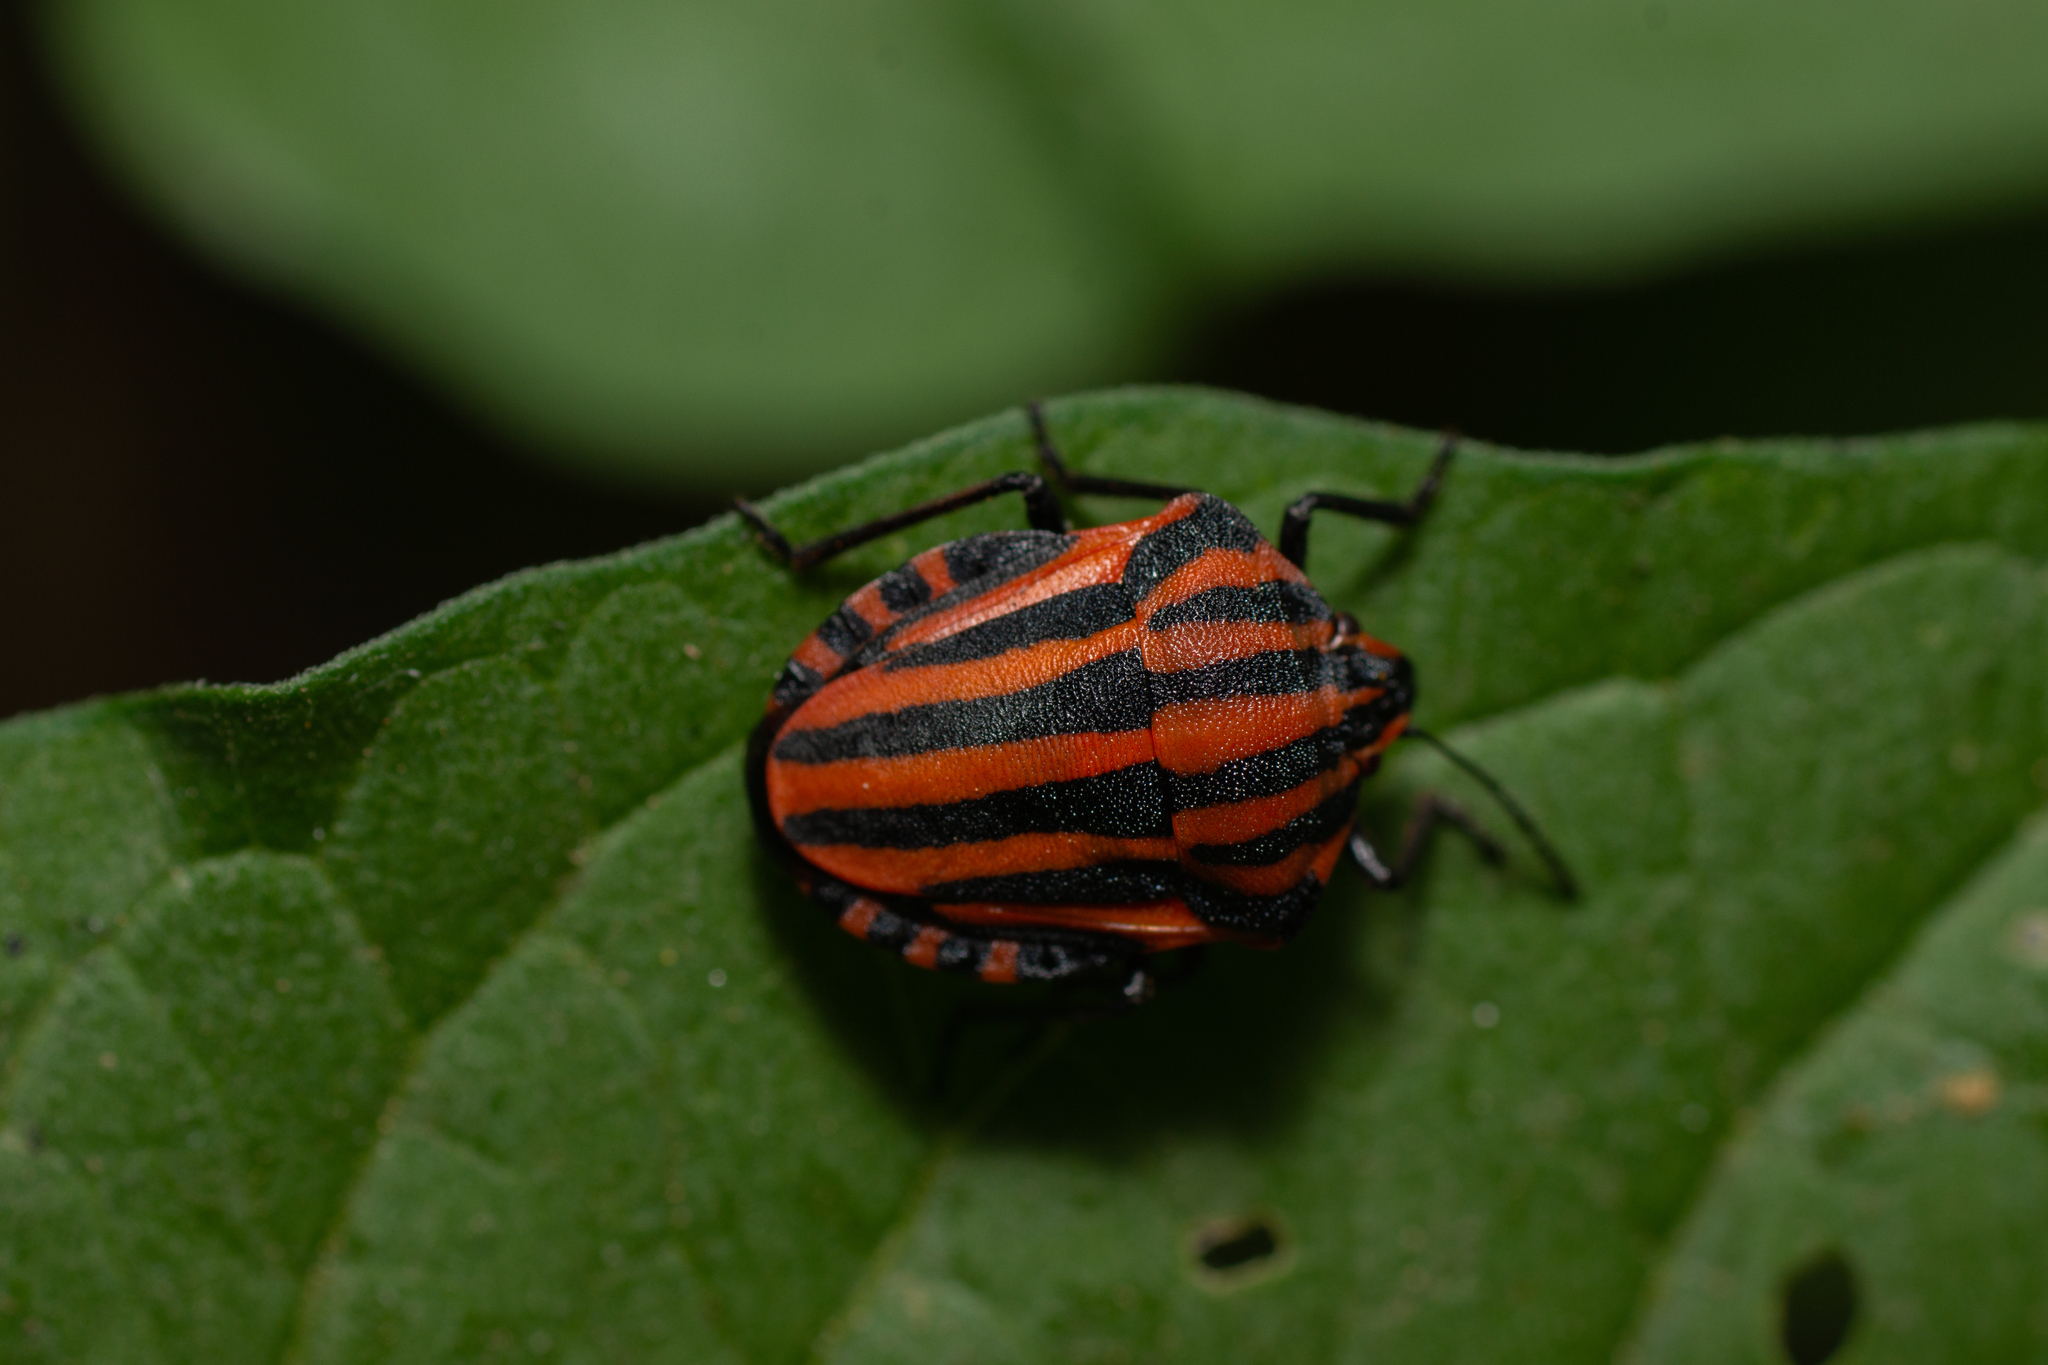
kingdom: Animalia
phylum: Arthropoda
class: Insecta
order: Hemiptera
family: Pentatomidae
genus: Graphosoma
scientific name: Graphosoma italicum
